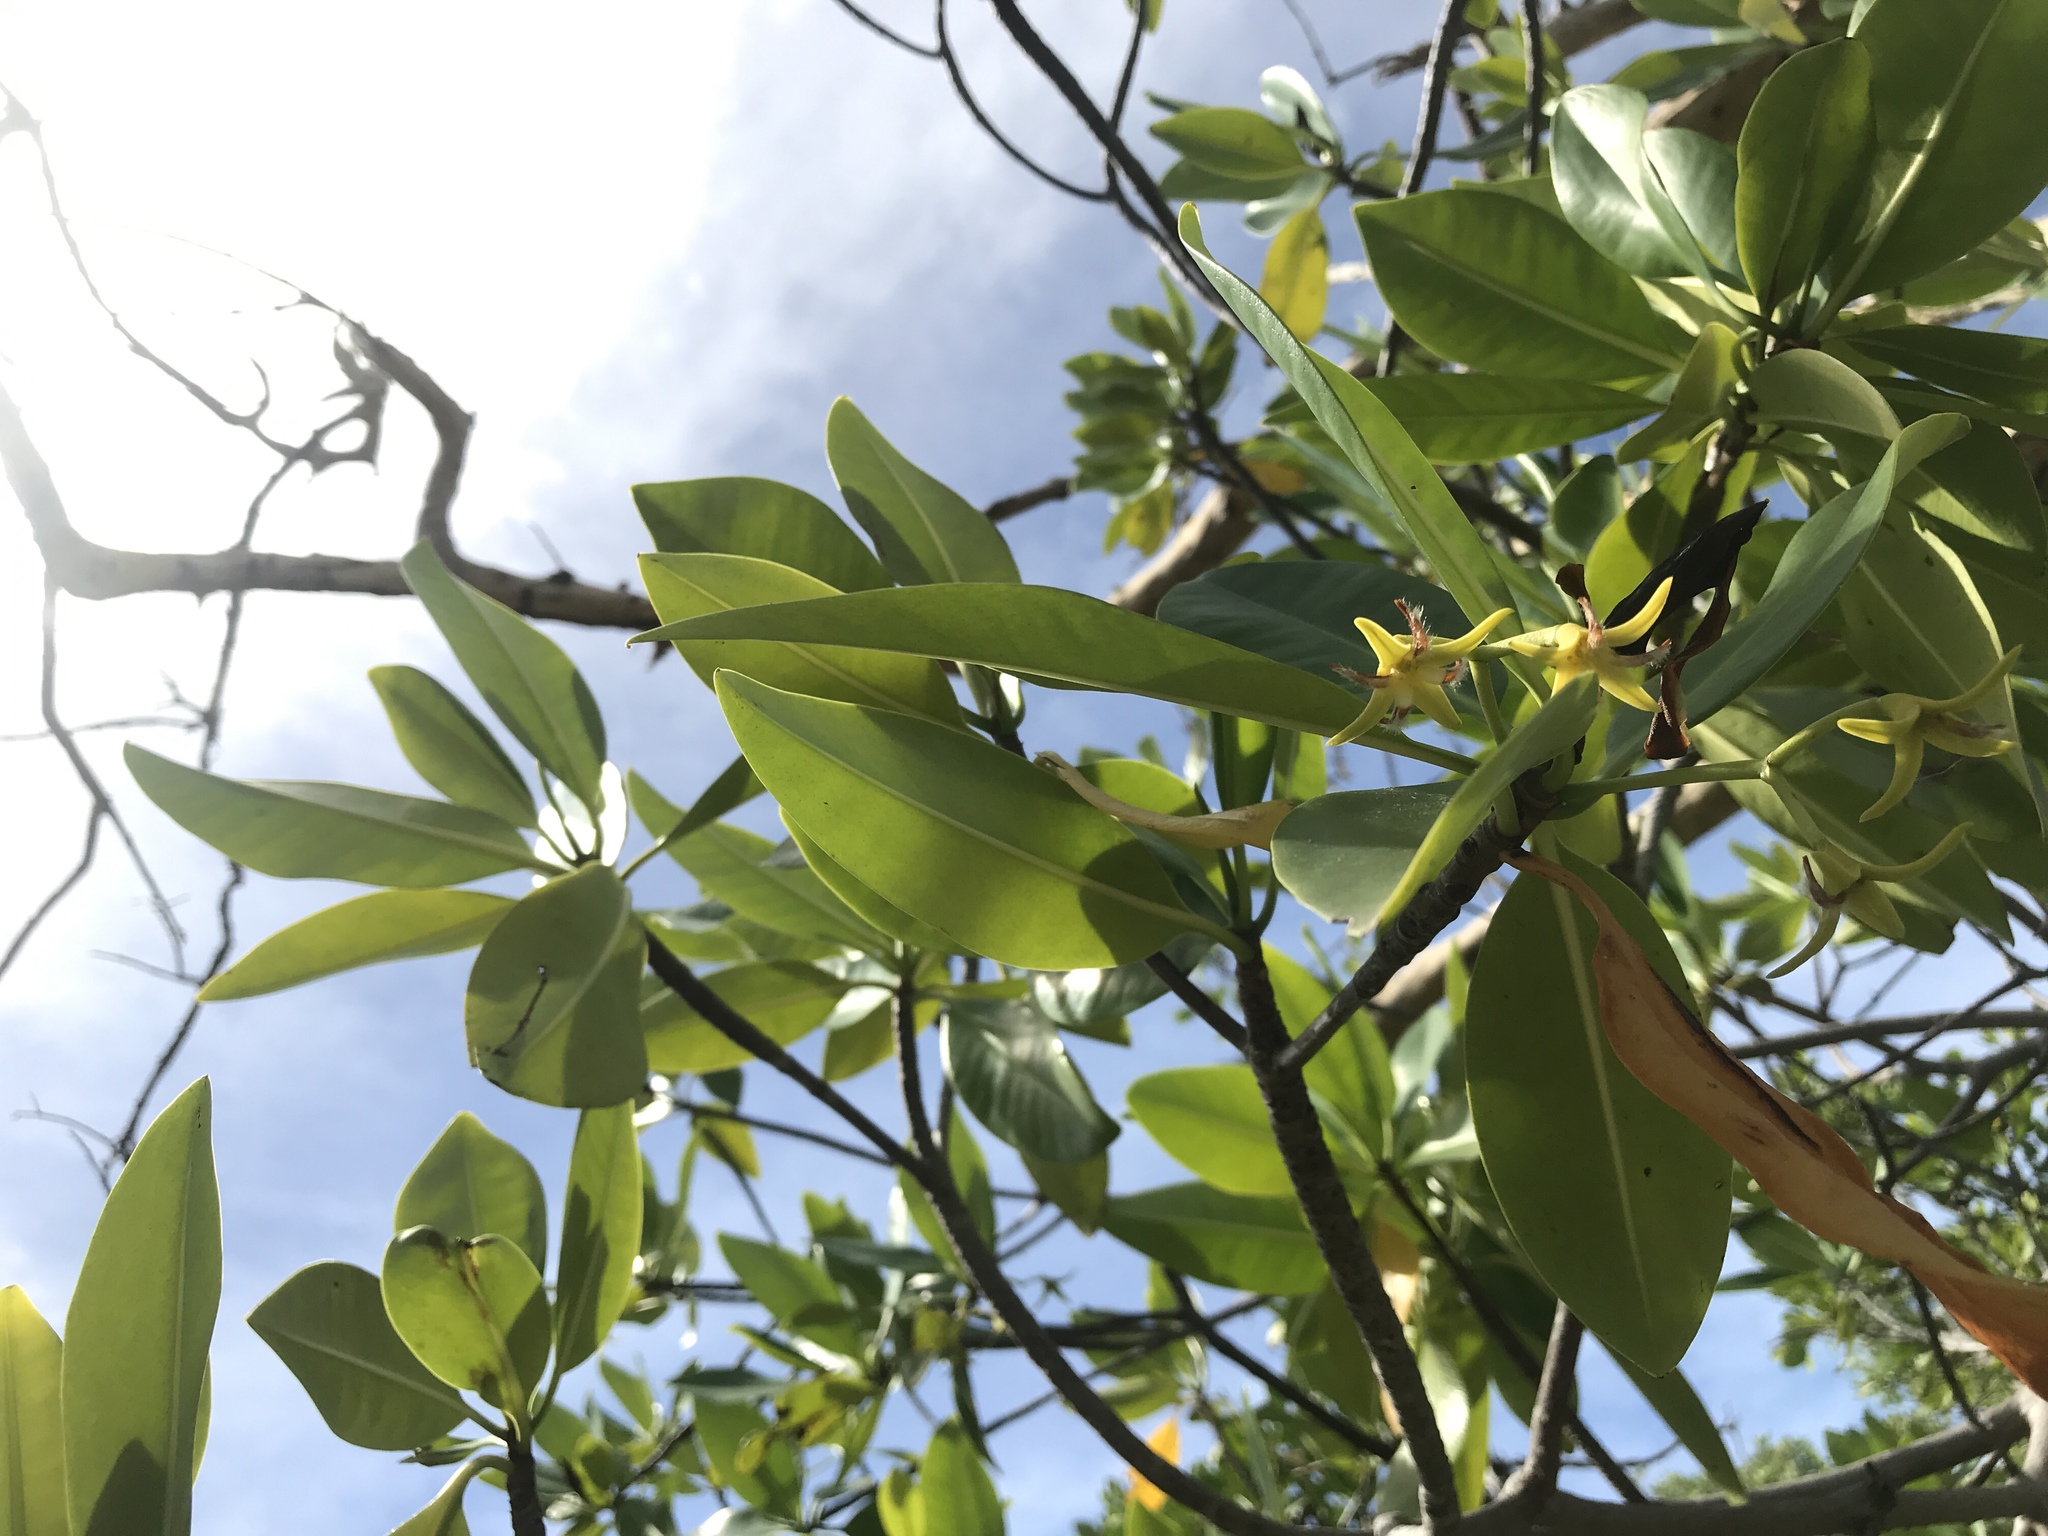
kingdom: Plantae
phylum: Tracheophyta
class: Magnoliopsida
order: Malpighiales
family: Rhizophoraceae
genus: Rhizophora
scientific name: Rhizophora mangle
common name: Red mangrove
